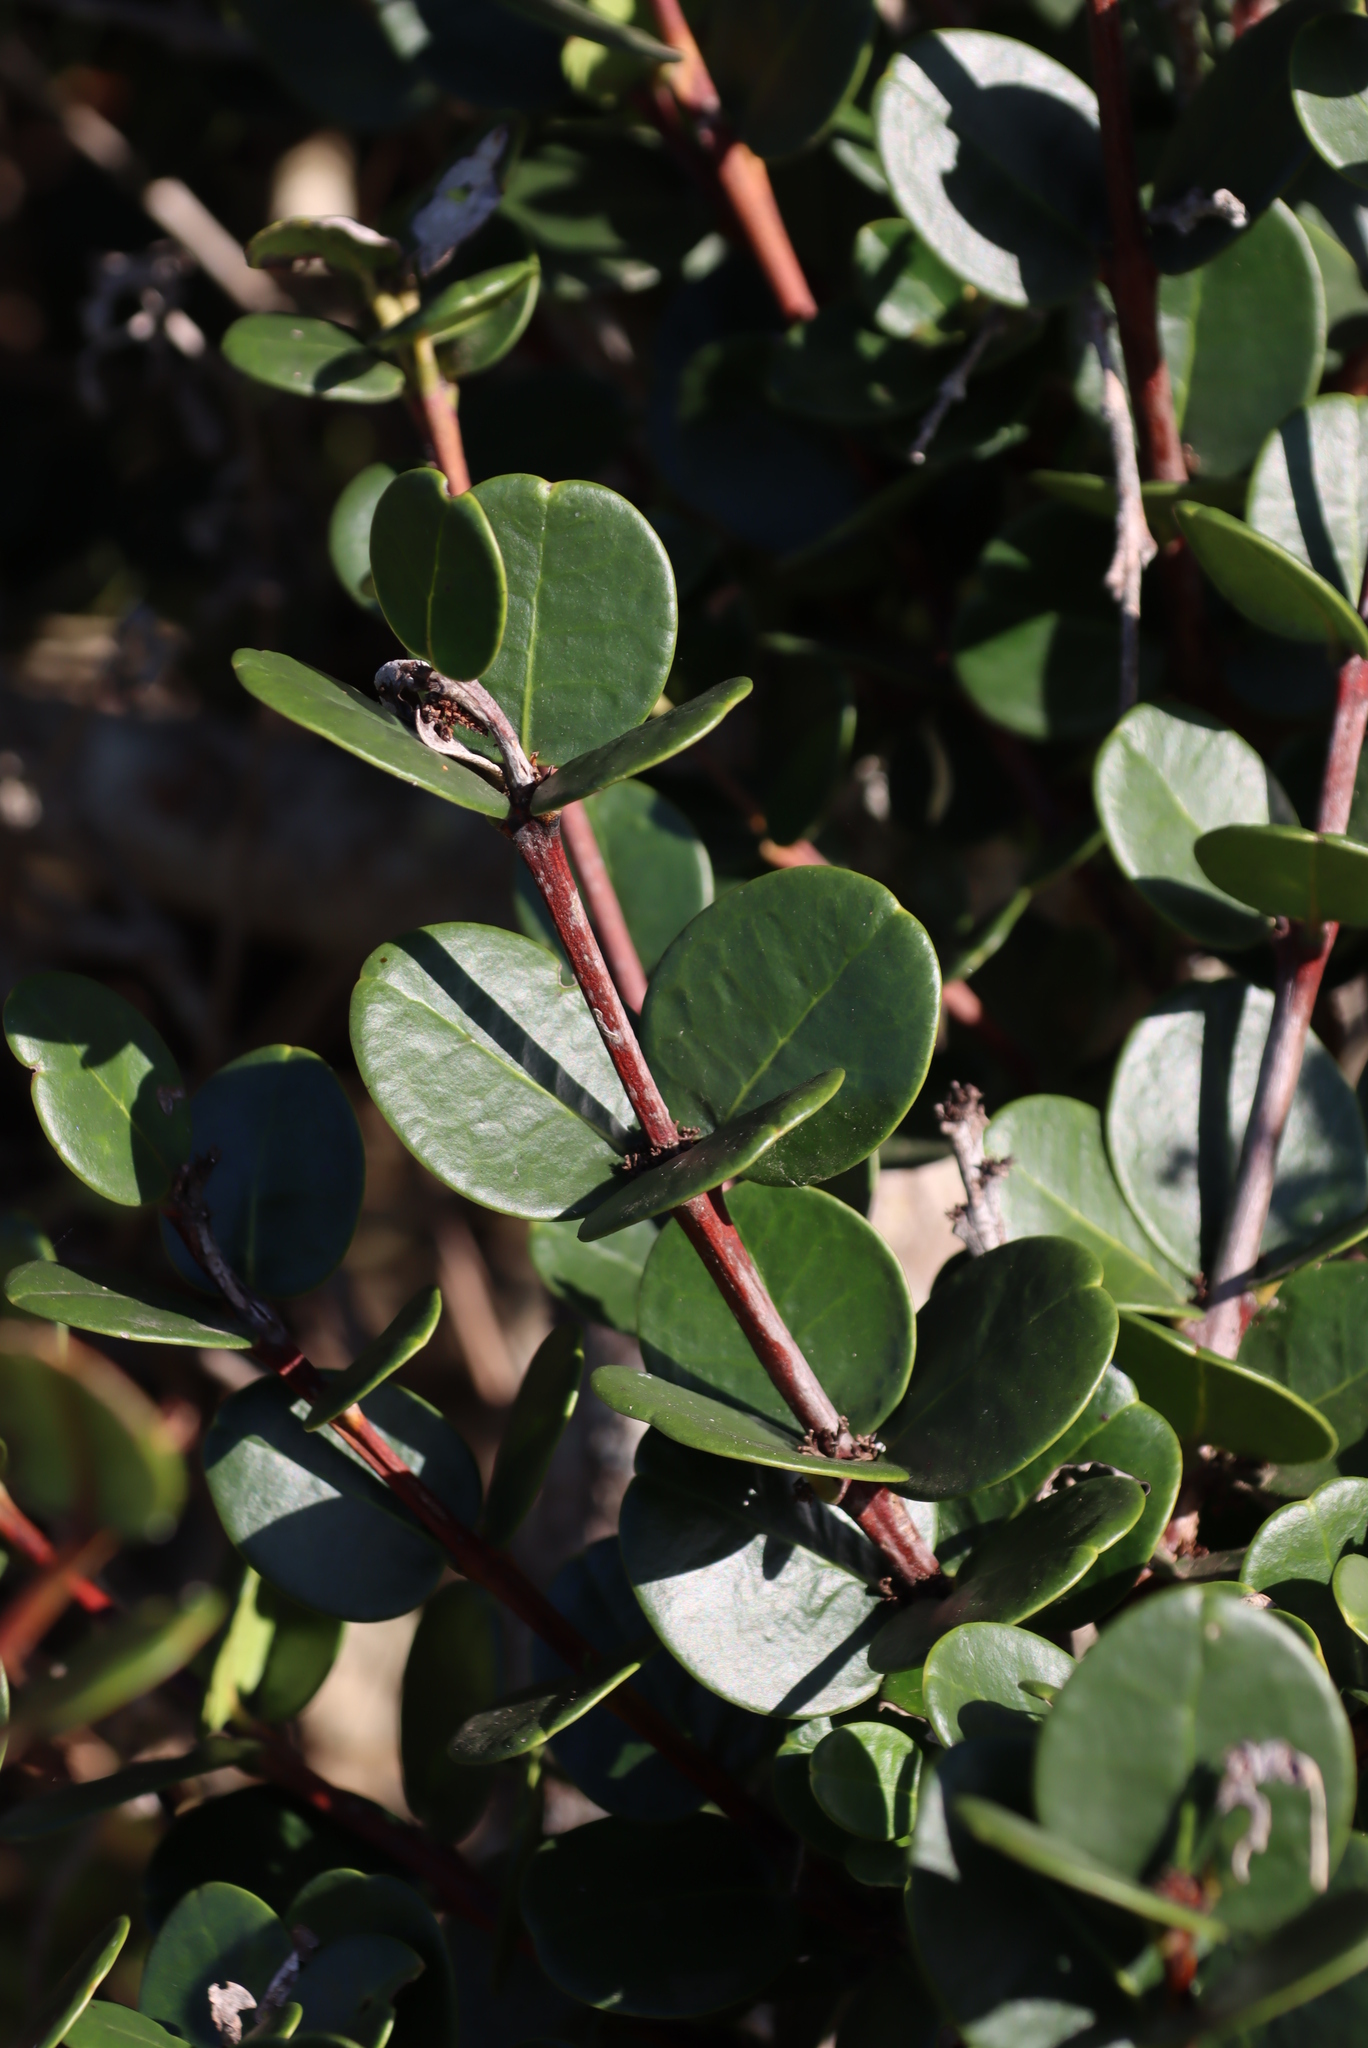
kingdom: Plantae
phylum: Tracheophyta
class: Magnoliopsida
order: Celastrales
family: Celastraceae
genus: Maurocenia
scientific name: Maurocenia frangula
